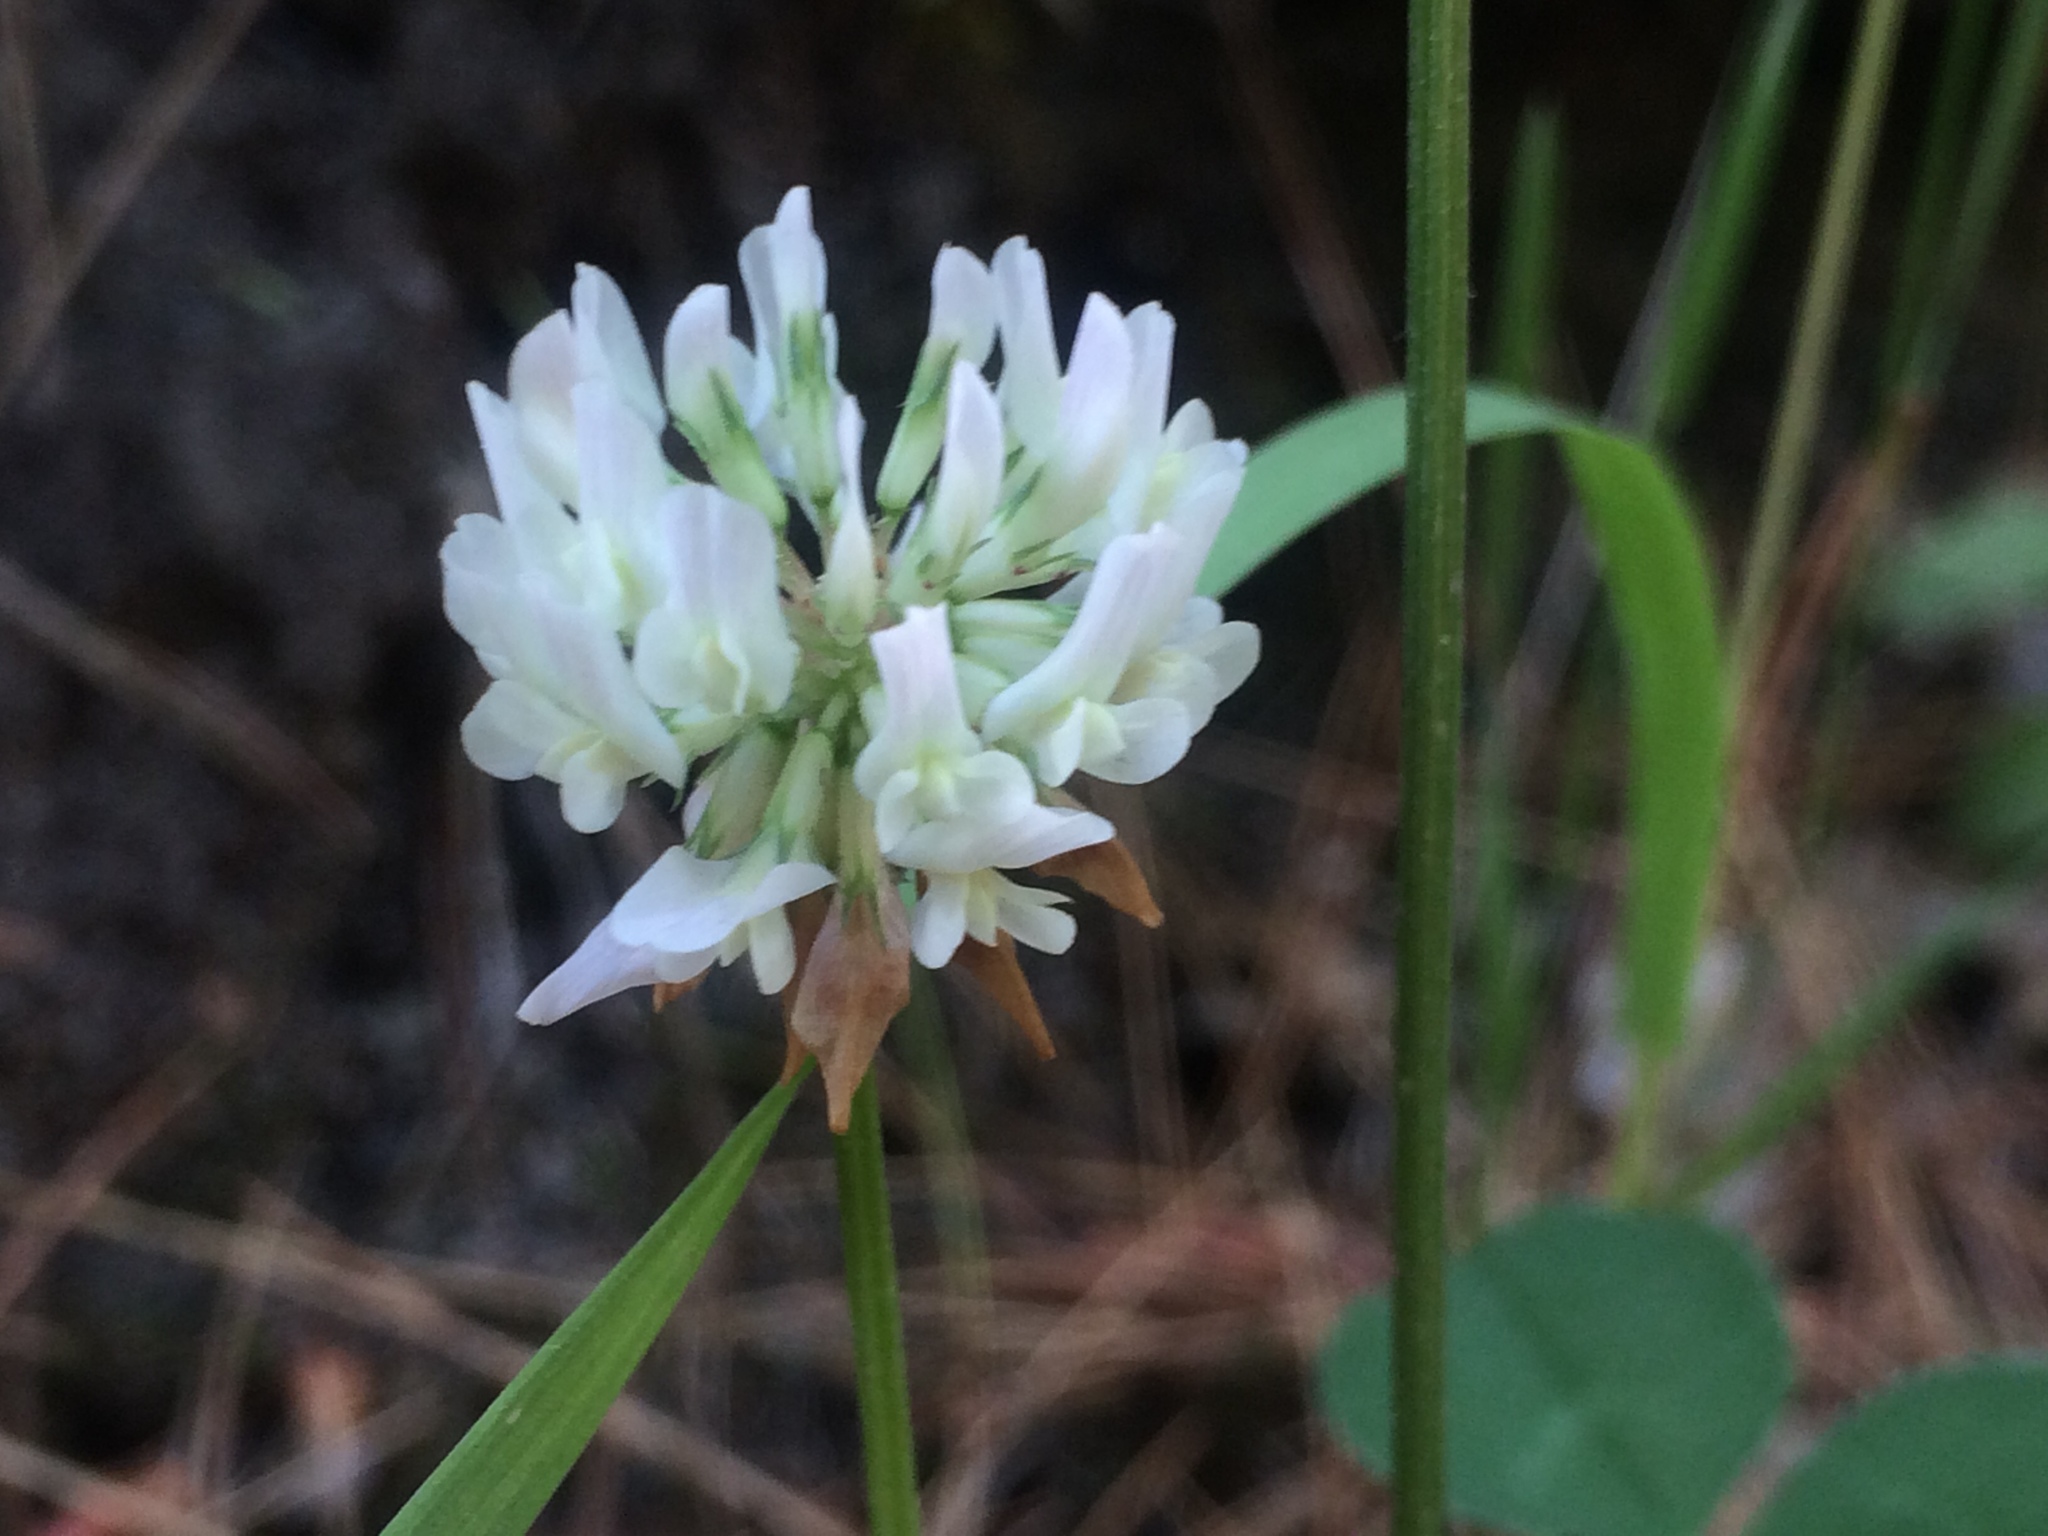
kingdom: Plantae
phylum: Tracheophyta
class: Magnoliopsida
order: Fabales
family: Fabaceae
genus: Trifolium
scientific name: Trifolium repens
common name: White clover
